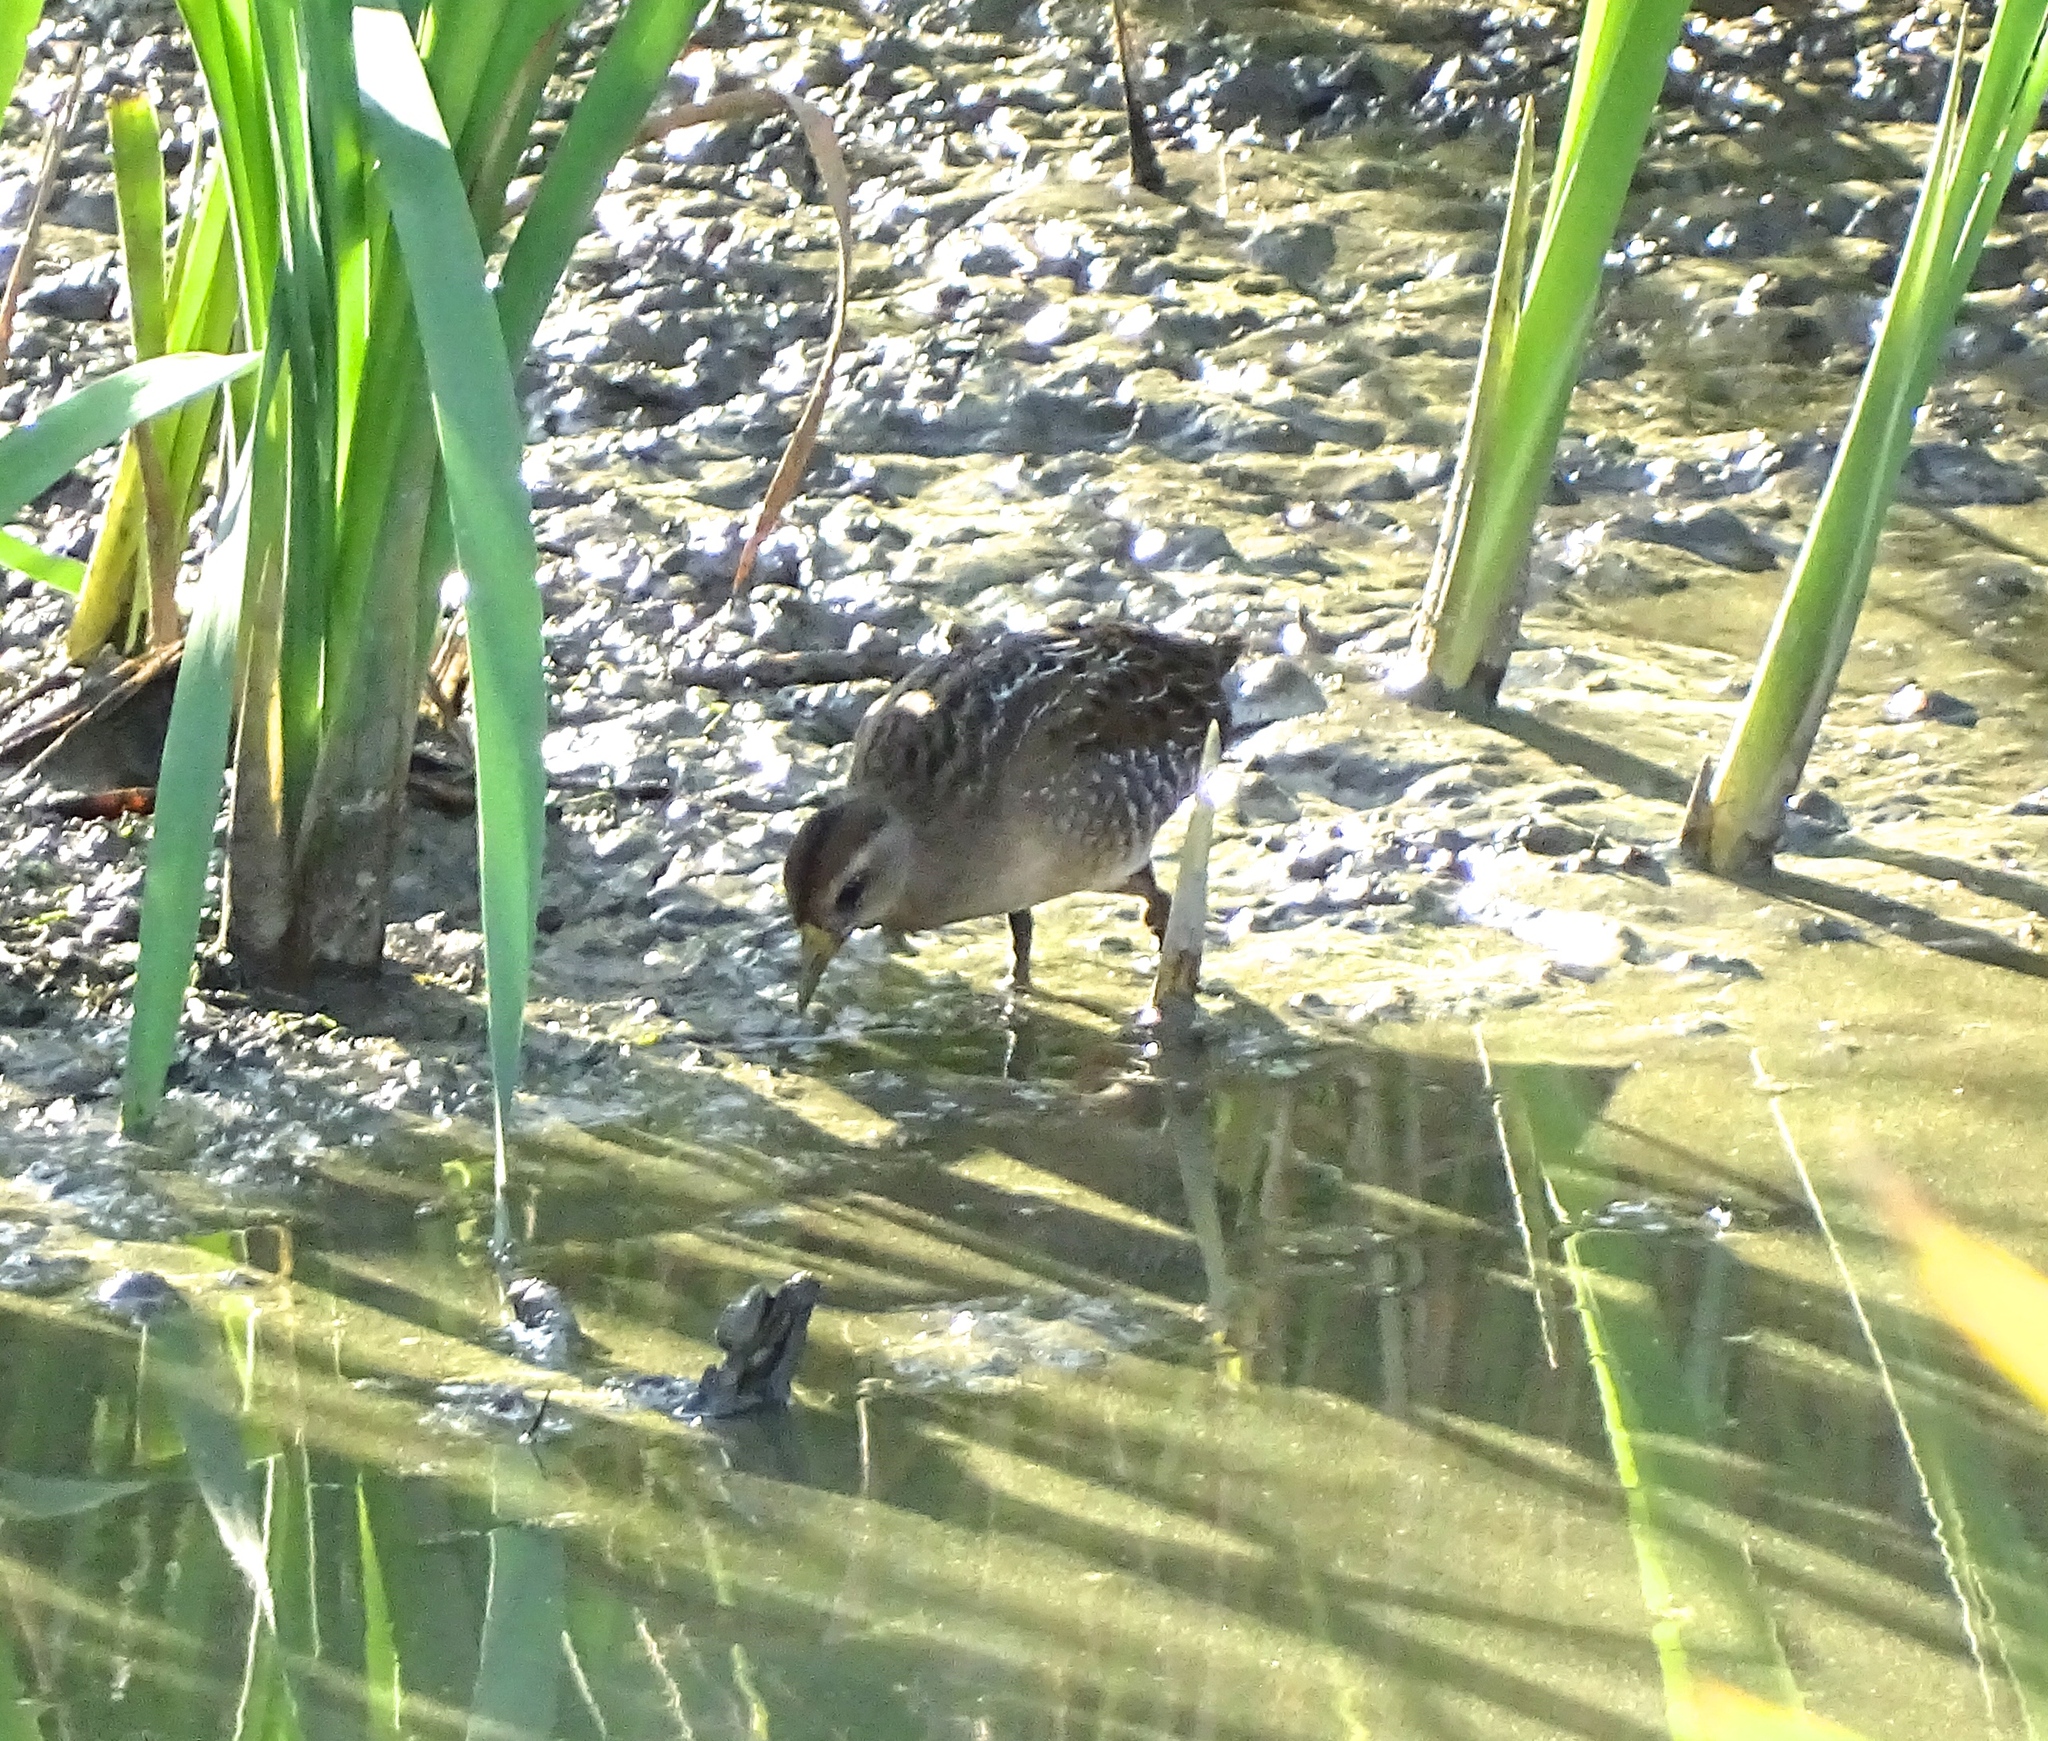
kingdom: Animalia
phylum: Chordata
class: Aves
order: Gruiformes
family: Rallidae
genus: Porzana
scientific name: Porzana carolina
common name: Sora
